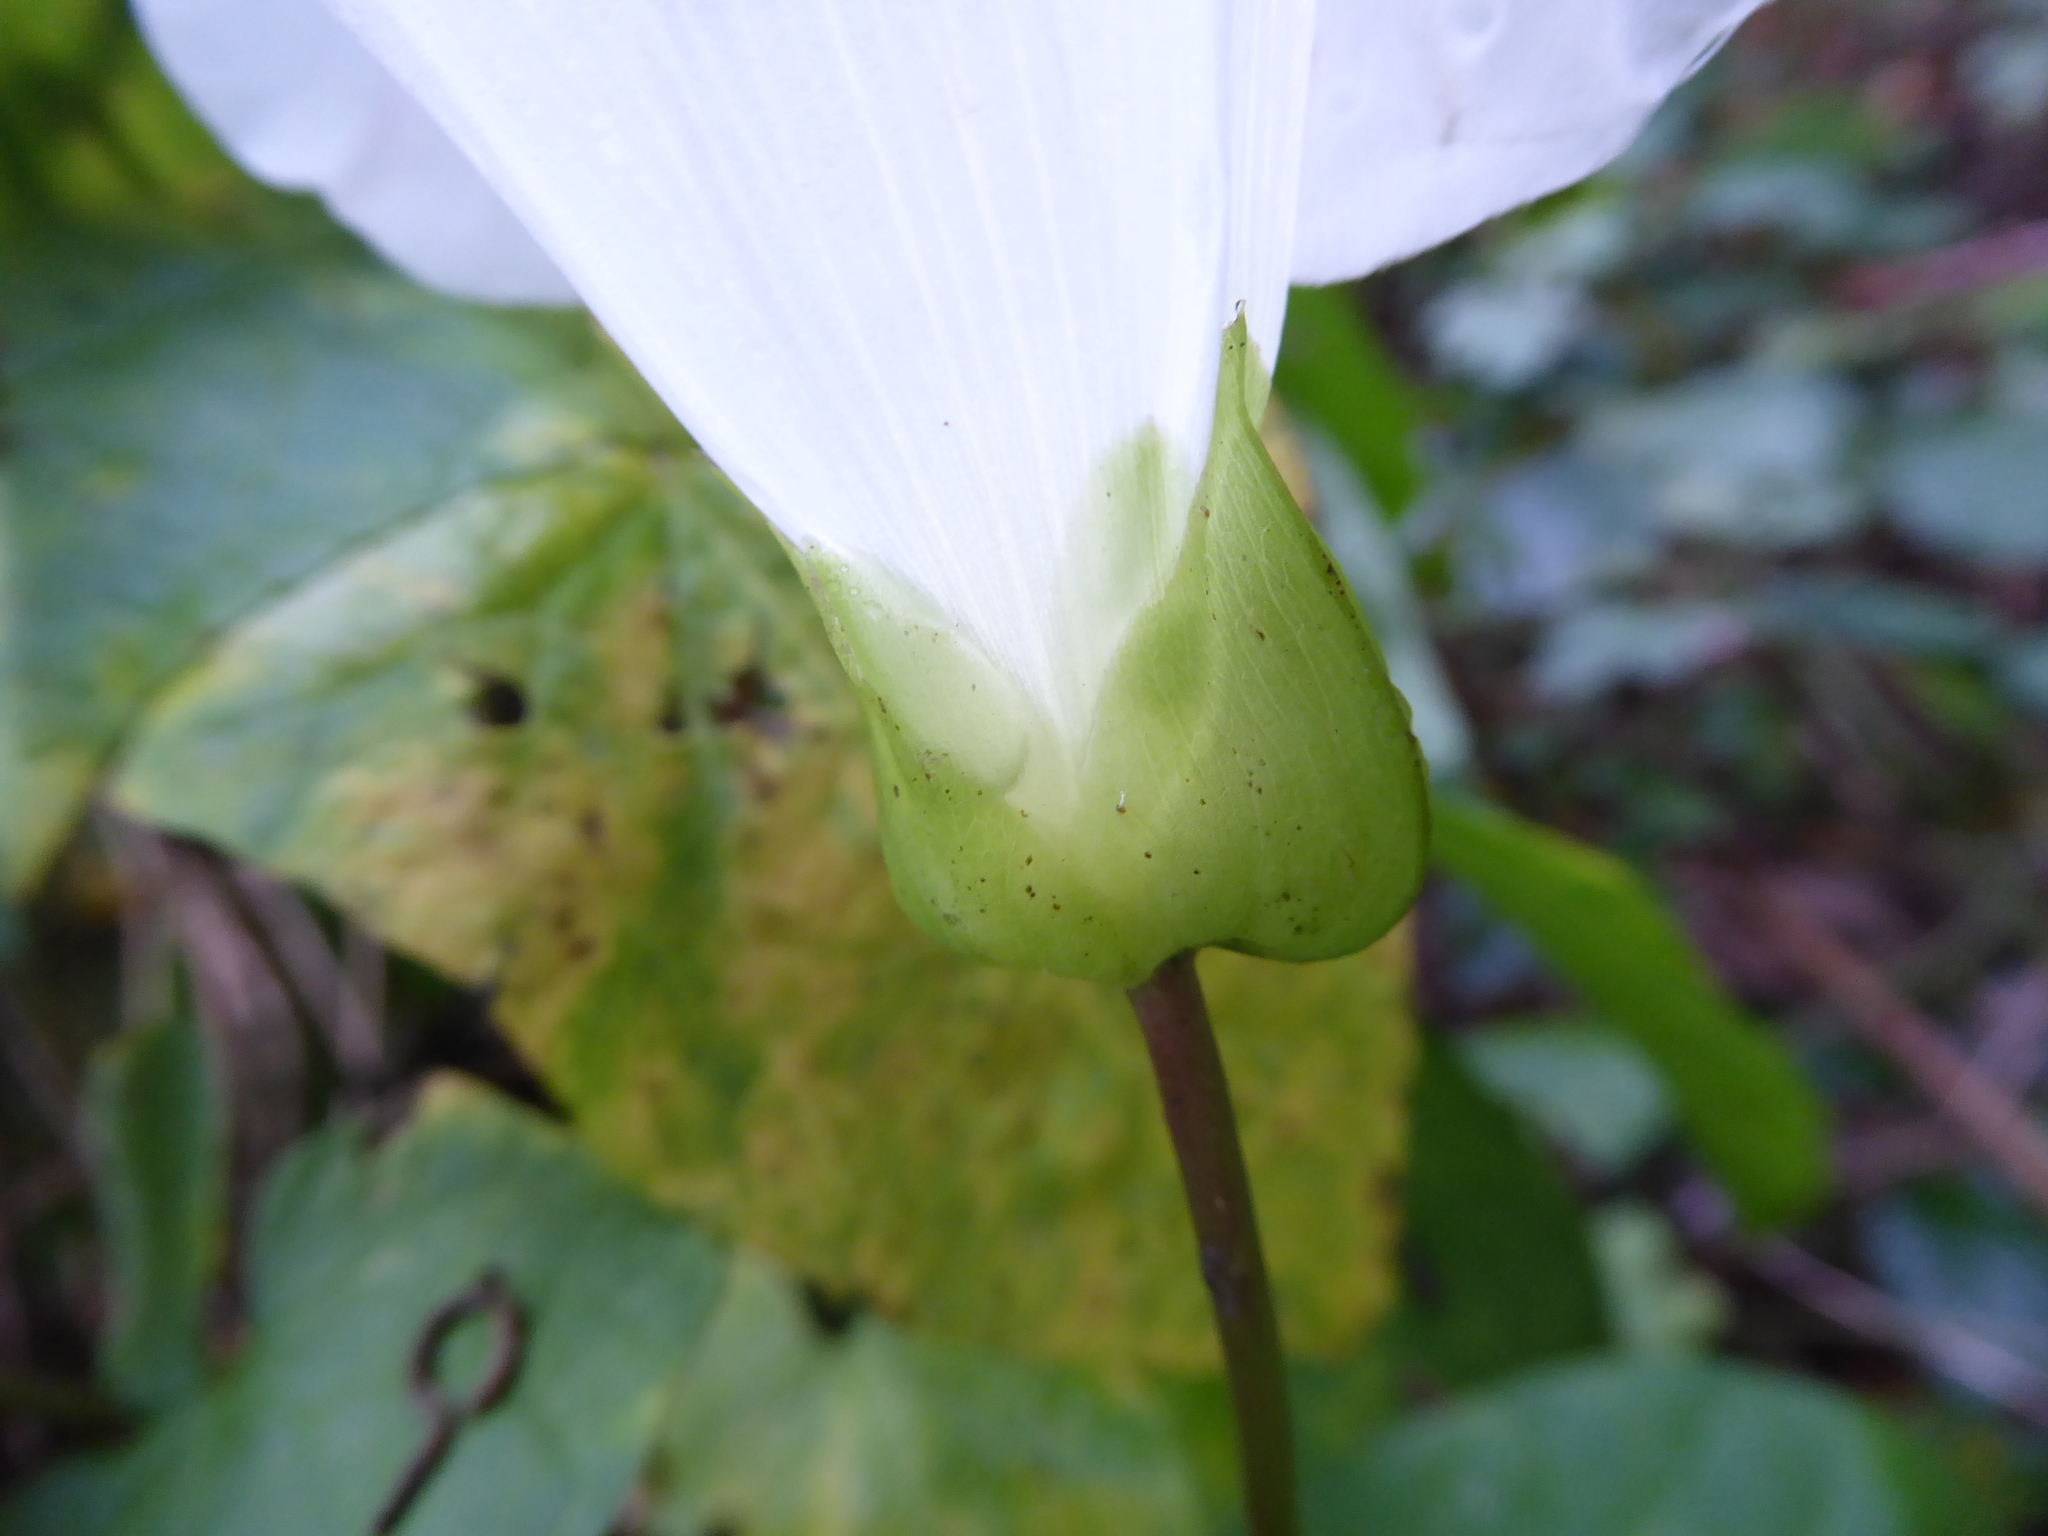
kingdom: Plantae
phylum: Tracheophyta
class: Magnoliopsida
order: Solanales
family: Convolvulaceae
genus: Calystegia
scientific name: Calystegia lucana
